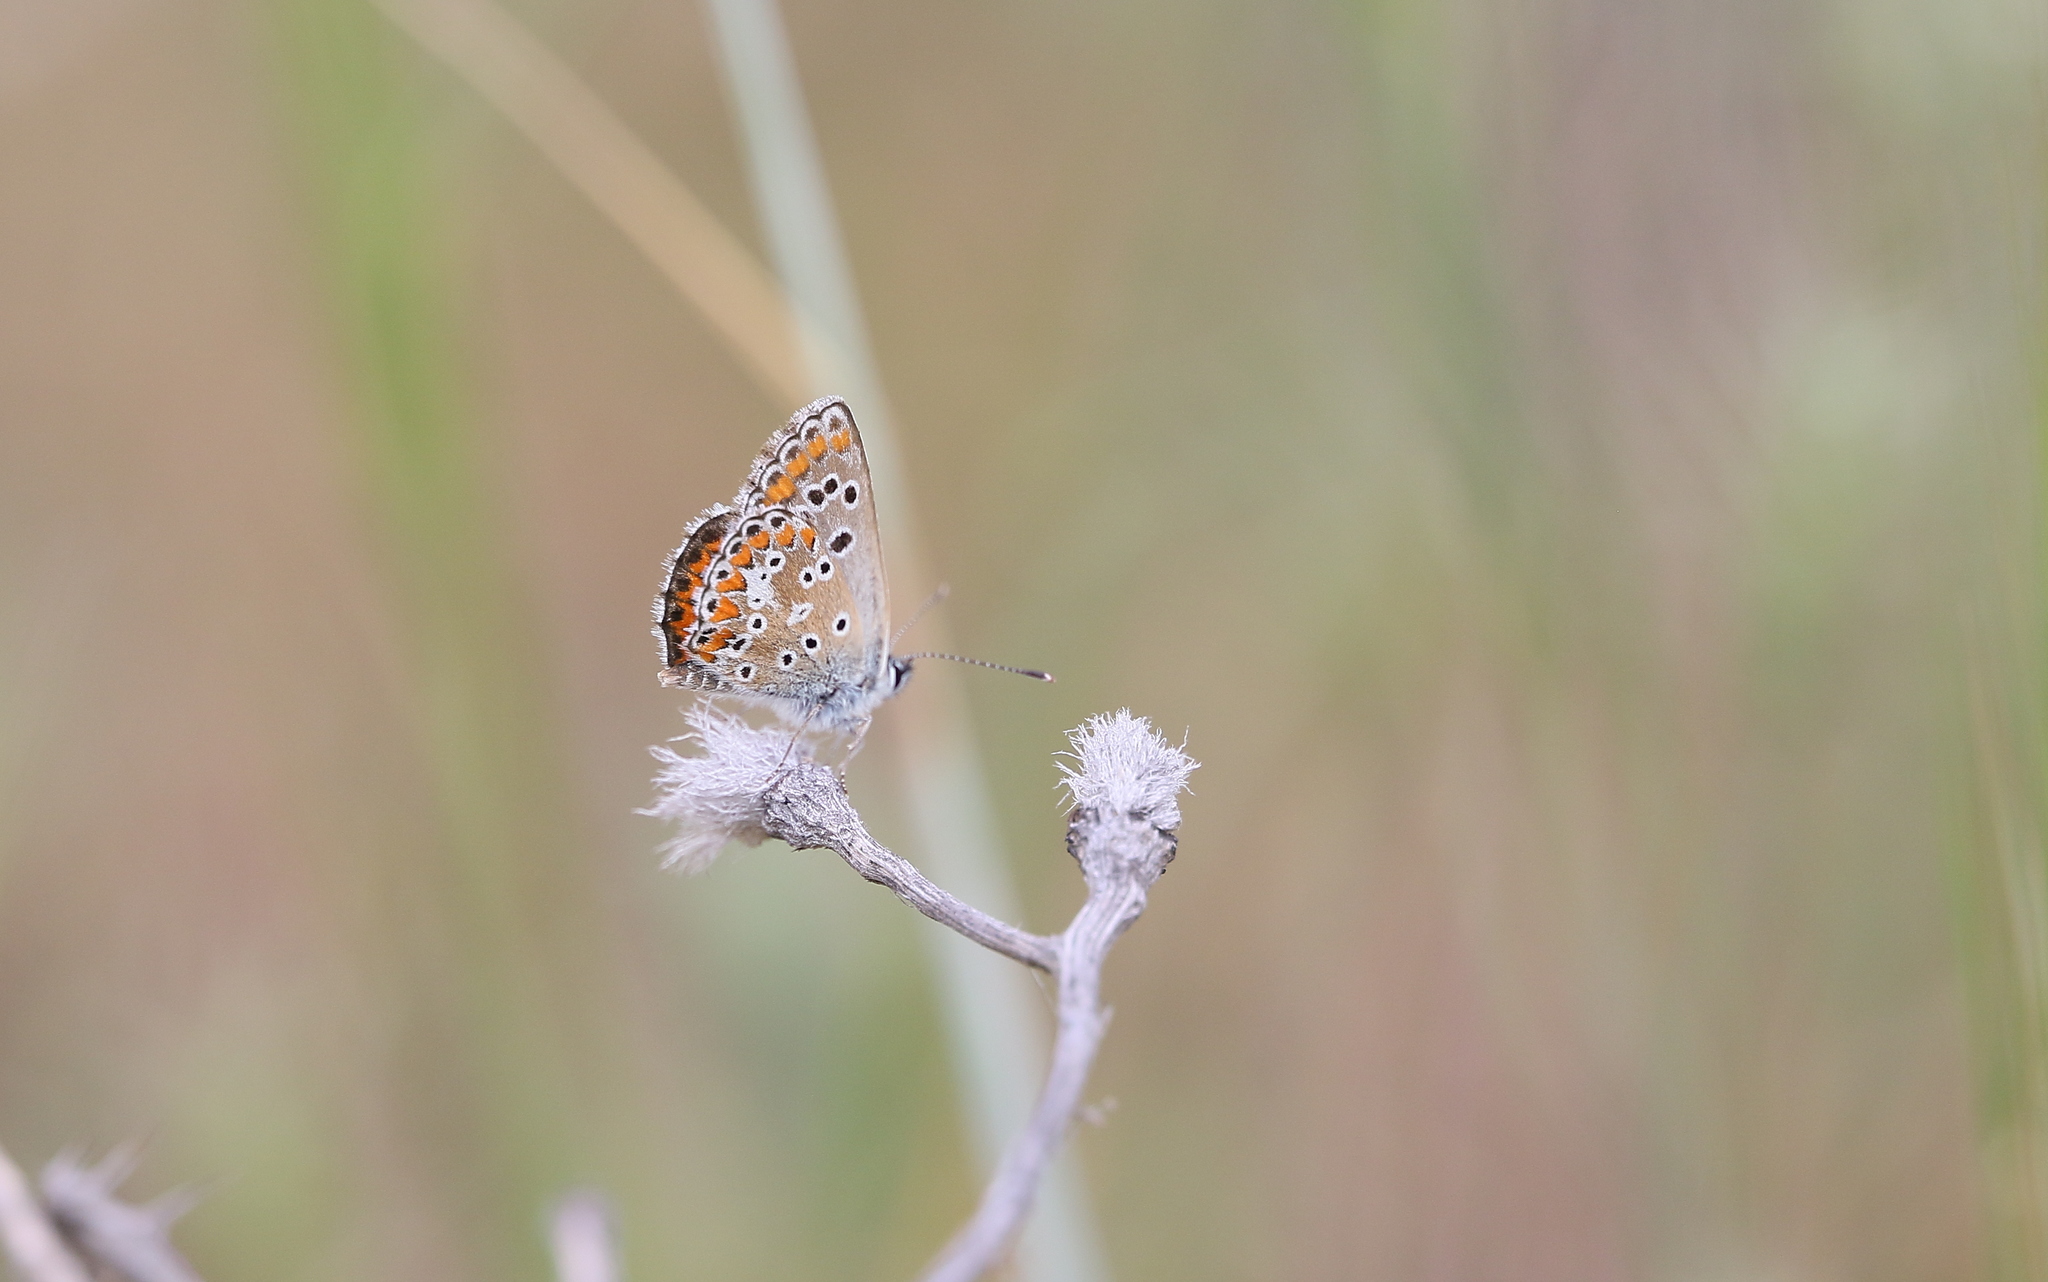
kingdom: Animalia
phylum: Arthropoda
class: Insecta
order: Lepidoptera
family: Lycaenidae
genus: Aricia
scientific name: Aricia cramera
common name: Eschscholtz´s brown  argus
